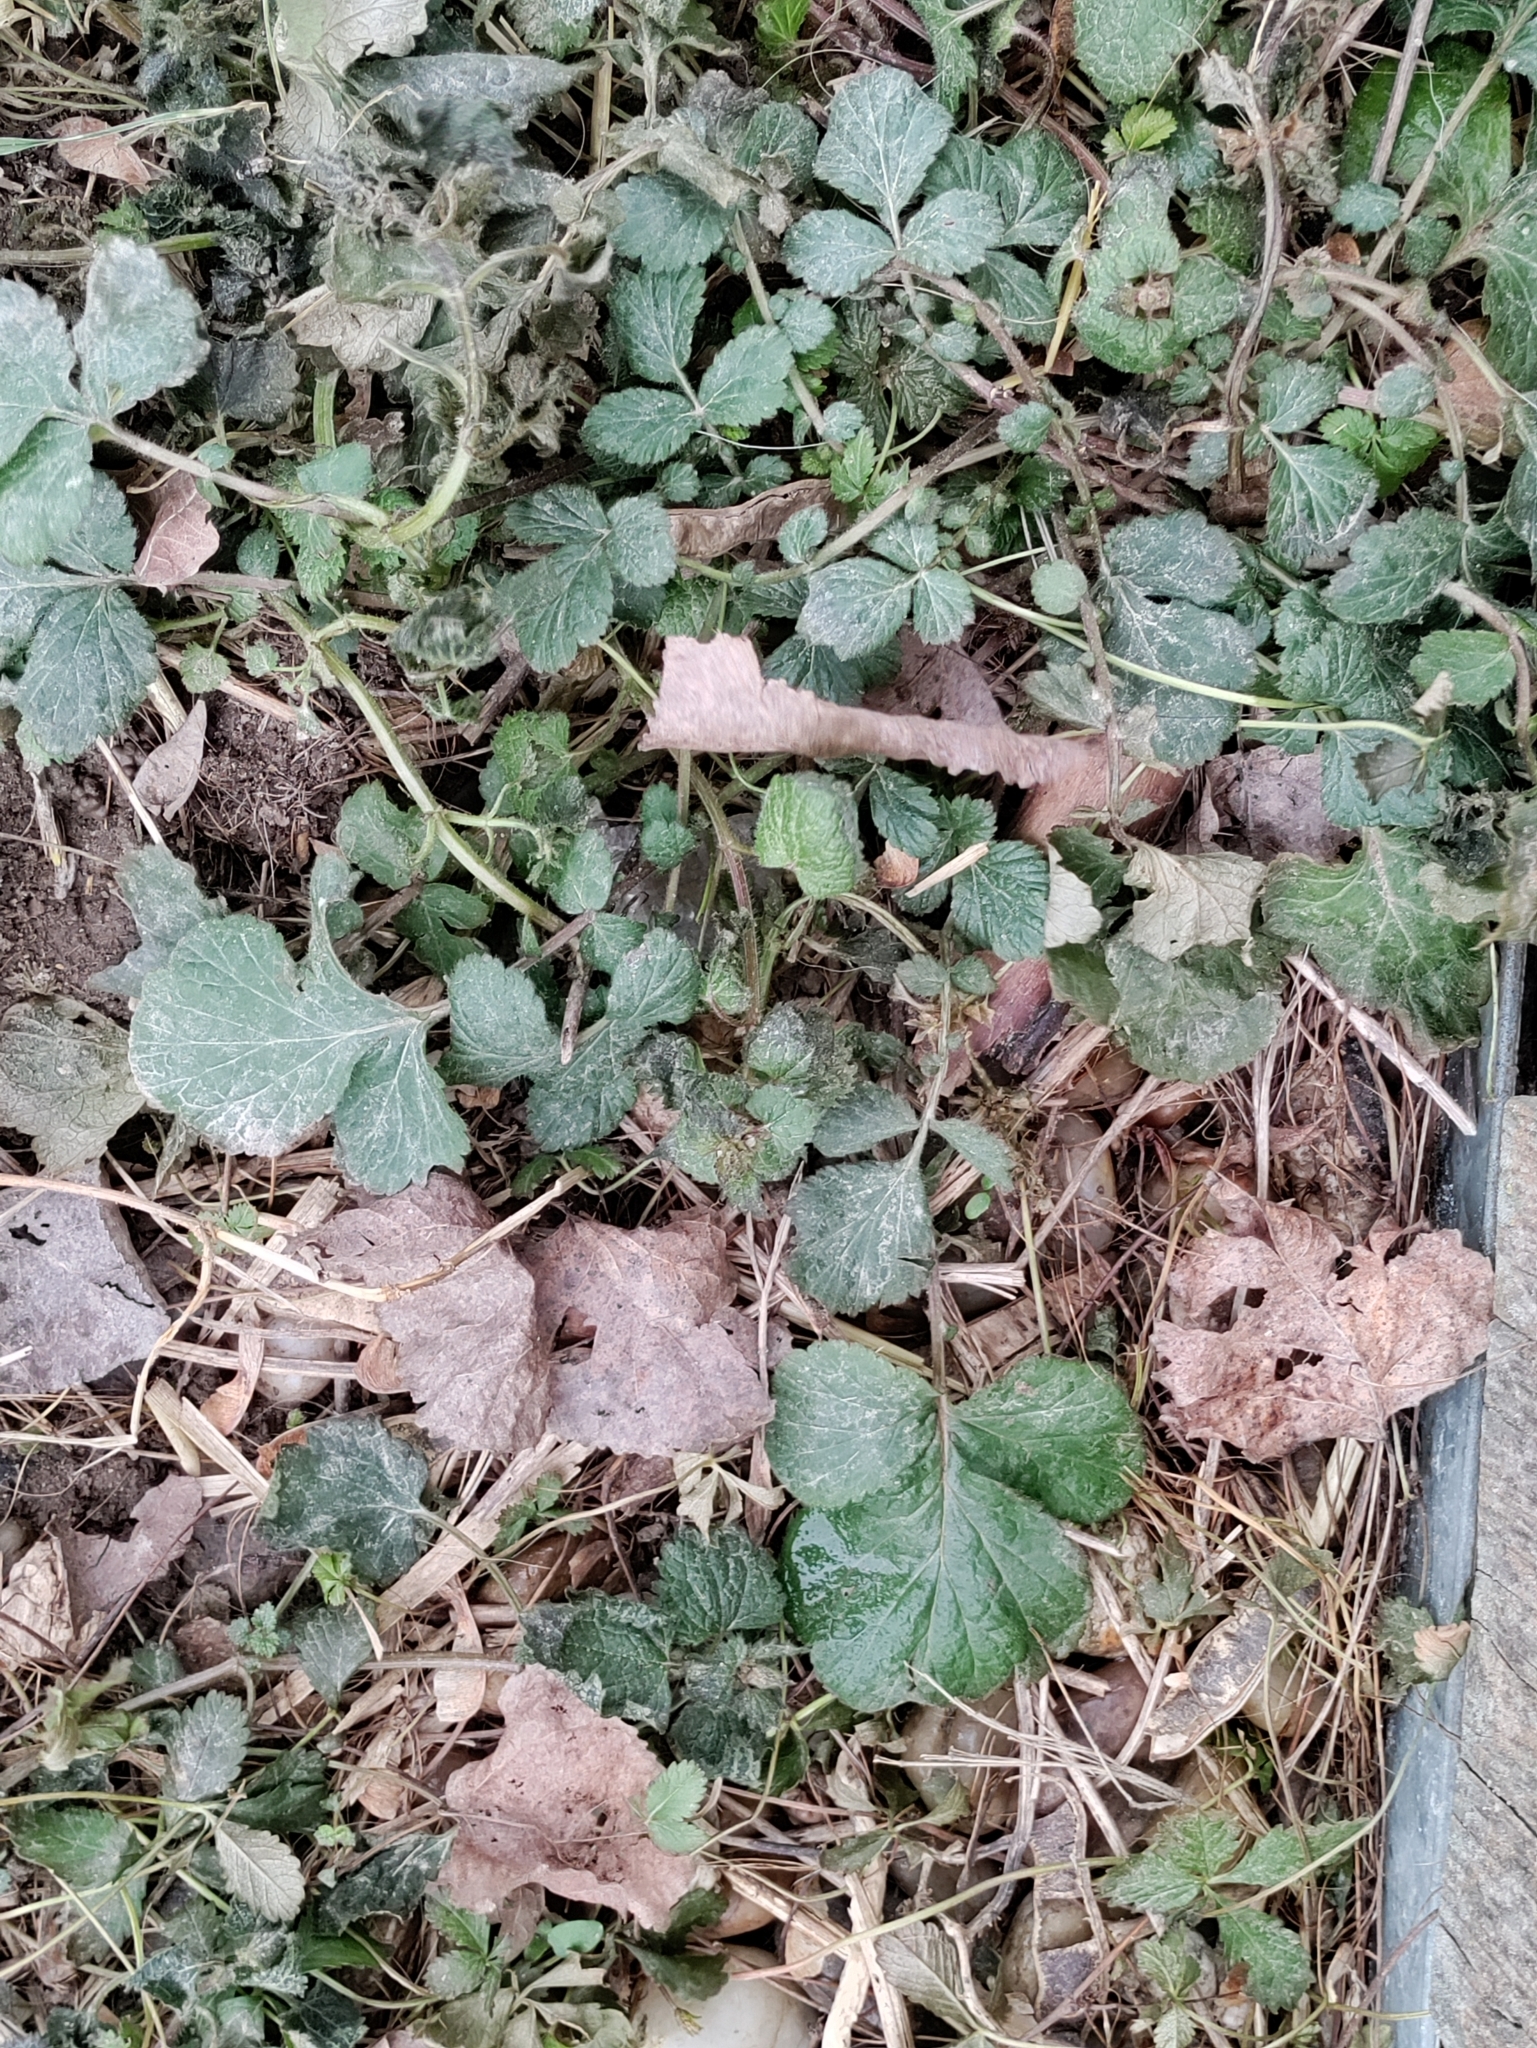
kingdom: Plantae
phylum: Tracheophyta
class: Magnoliopsida
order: Rosales
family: Rosaceae
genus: Geum
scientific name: Geum urbanum
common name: Wood avens
